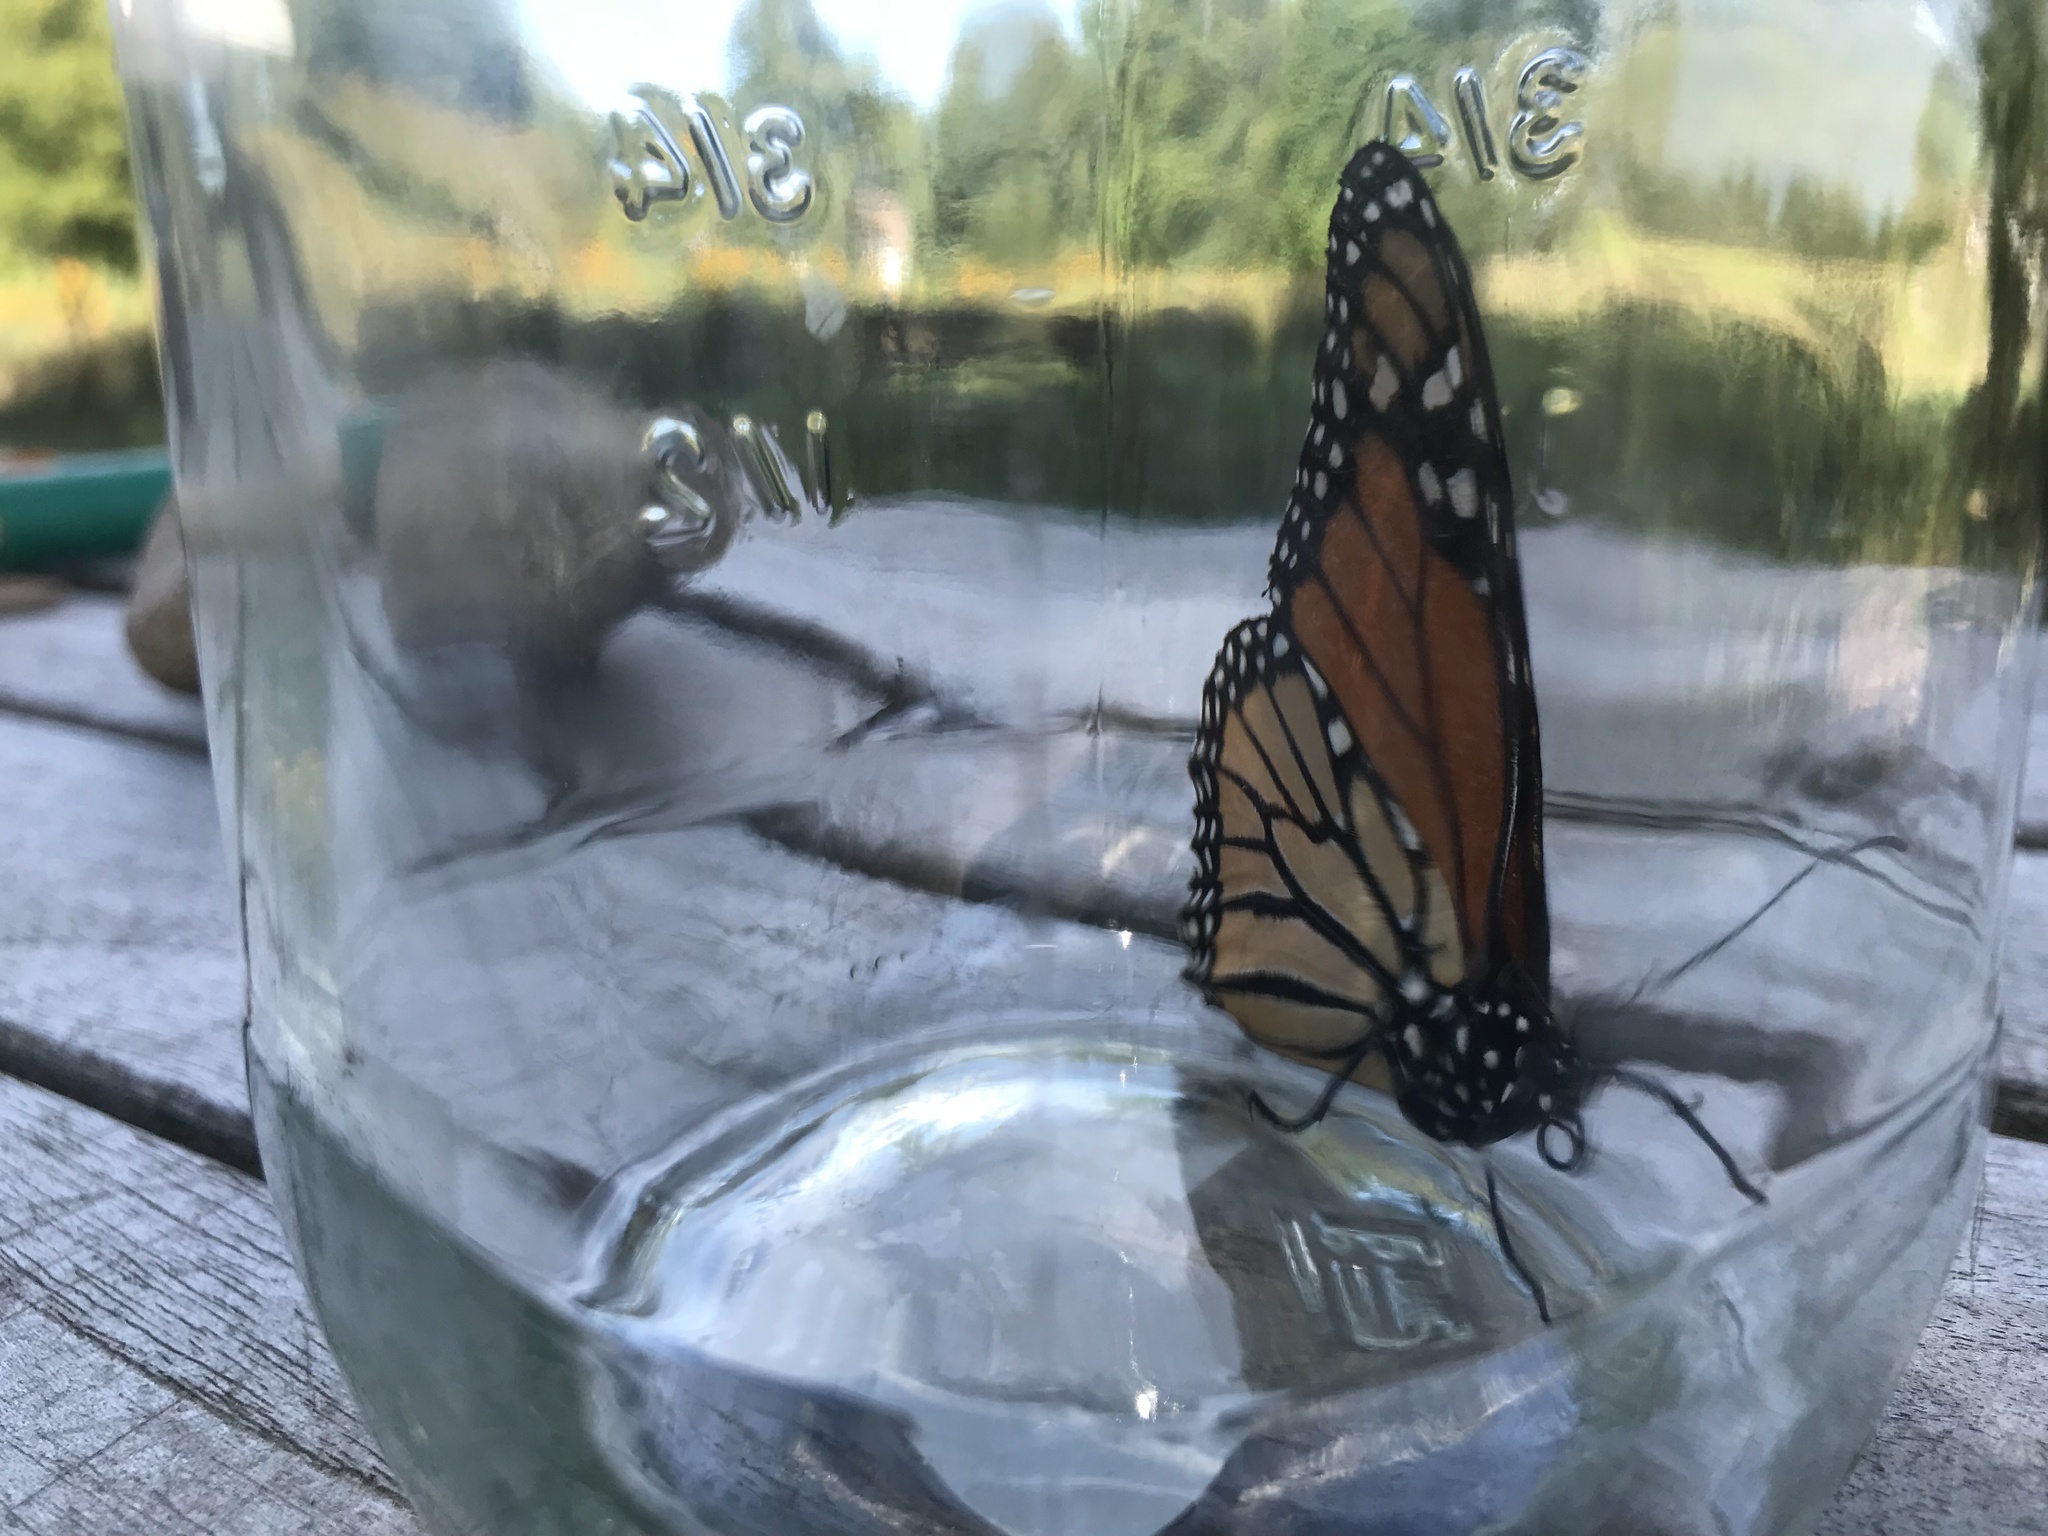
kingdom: Animalia
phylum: Arthropoda
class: Insecta
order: Lepidoptera
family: Nymphalidae
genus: Danaus
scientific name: Danaus plexippus
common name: Monarch
